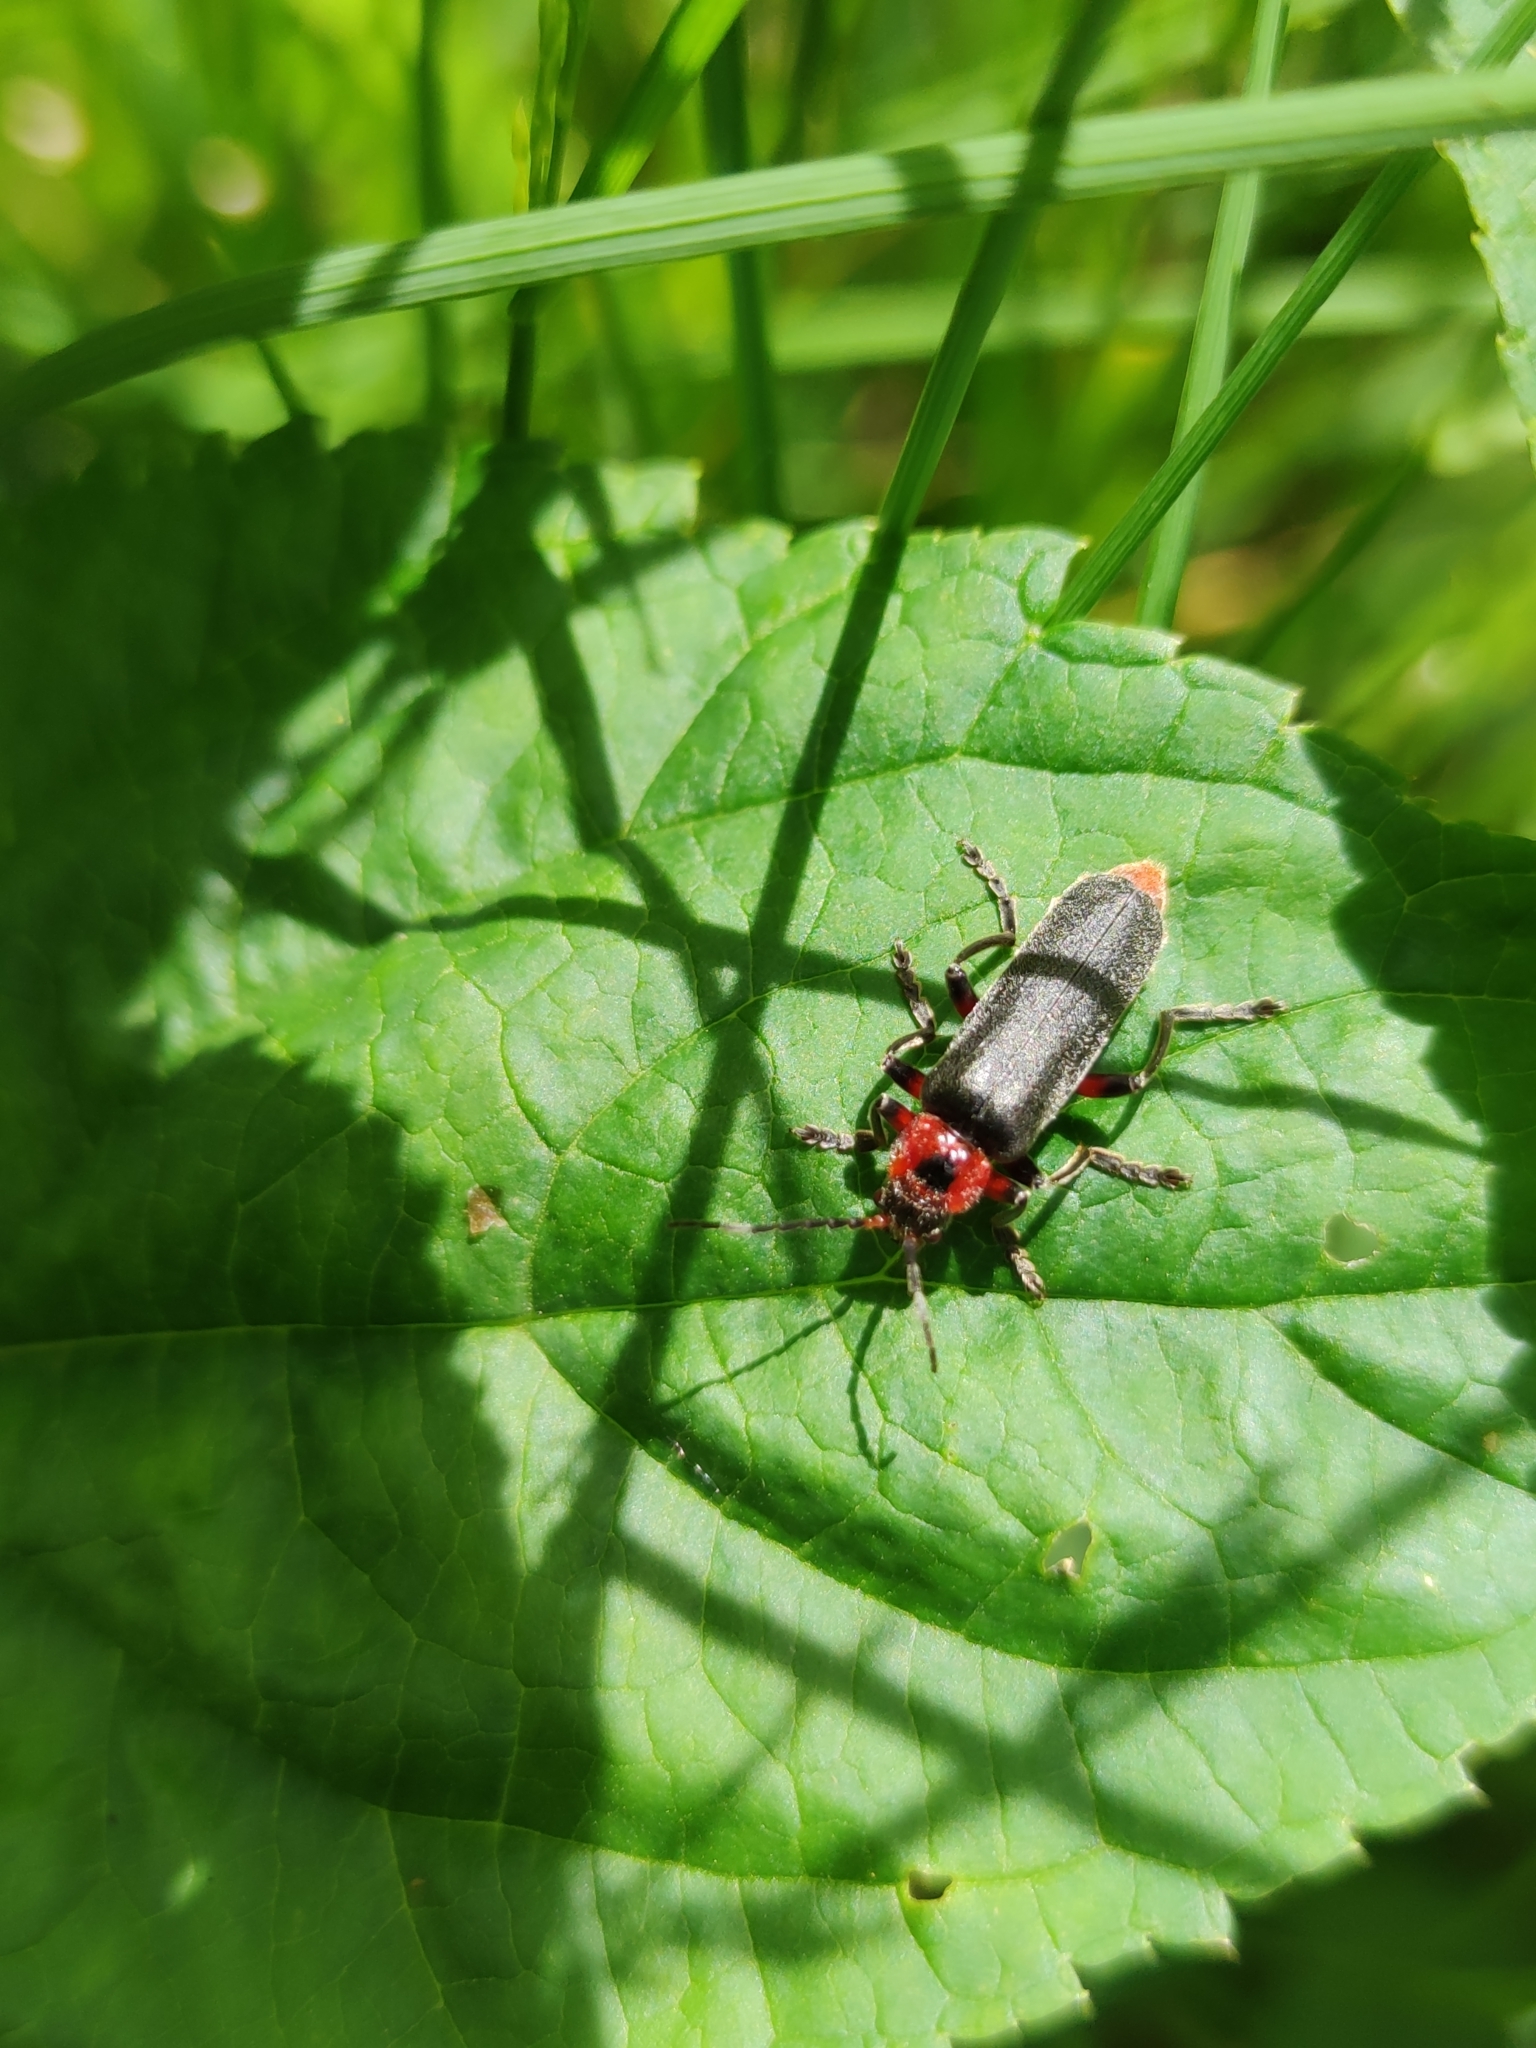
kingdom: Animalia
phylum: Arthropoda
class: Insecta
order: Coleoptera
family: Cantharidae
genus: Cantharis
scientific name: Cantharis rustica
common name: Soldier beetle
